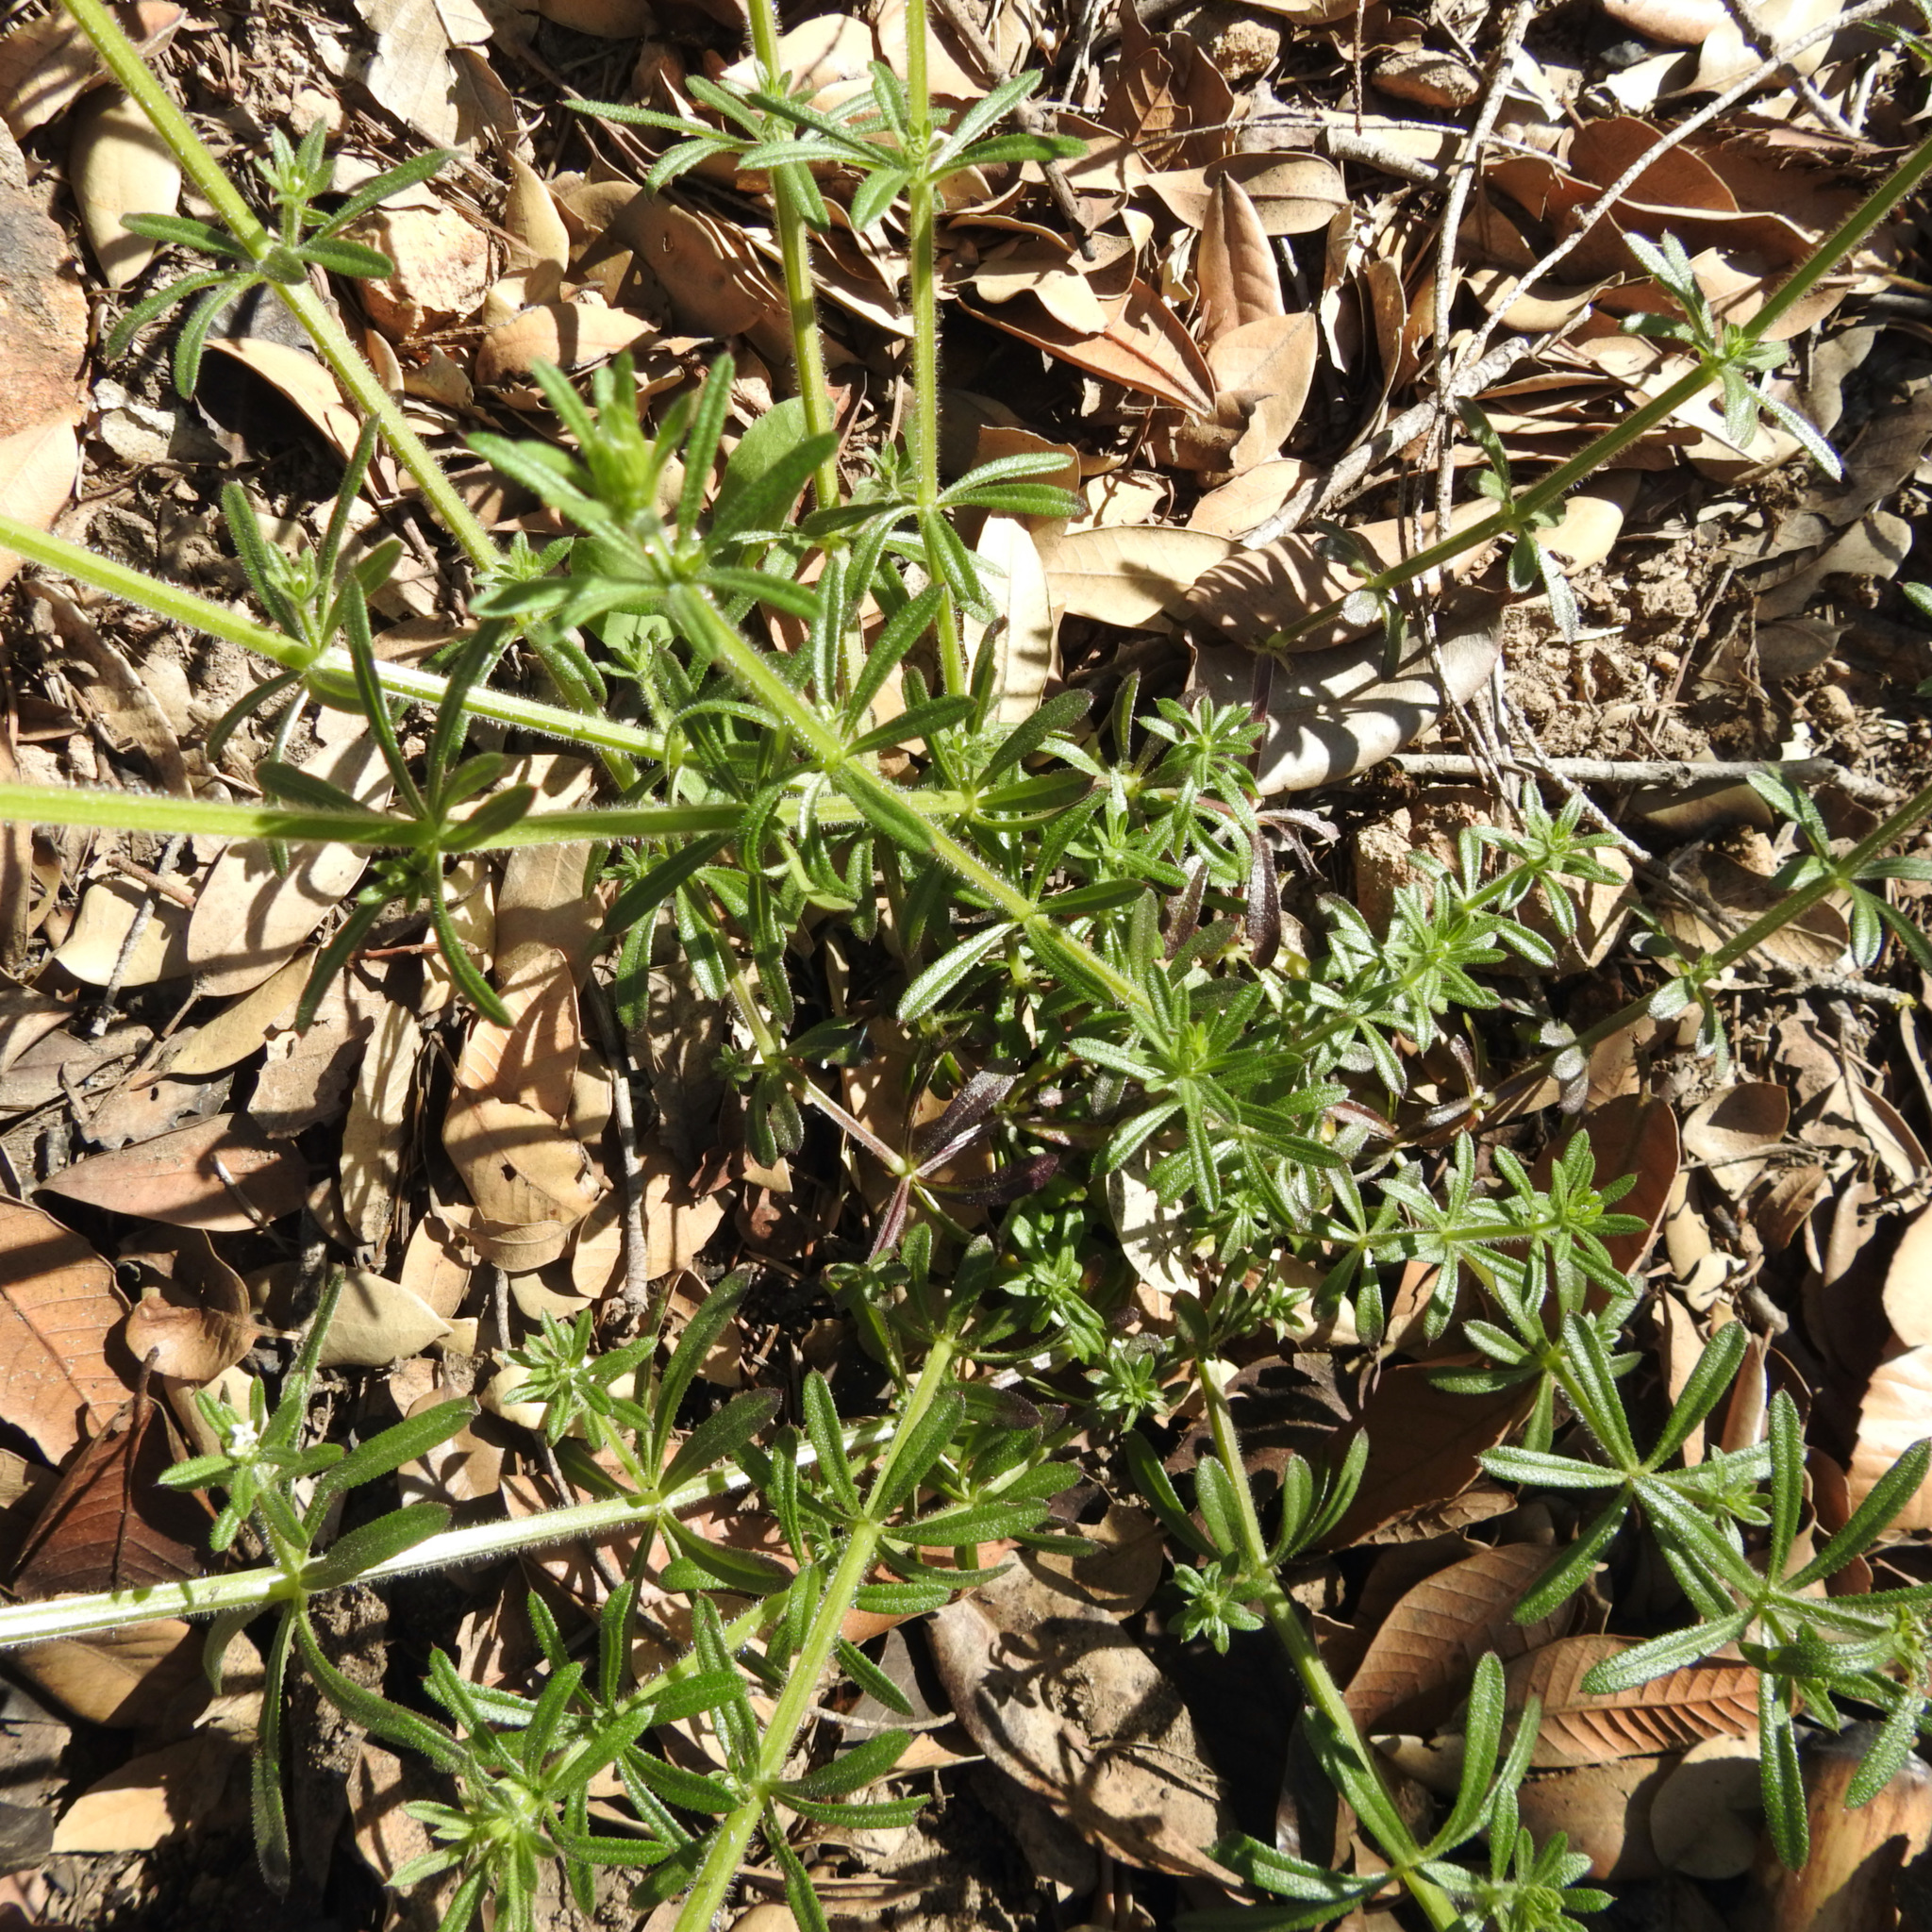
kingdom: Plantae
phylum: Tracheophyta
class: Magnoliopsida
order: Gentianales
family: Rubiaceae
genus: Galium
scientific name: Galium aparine
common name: Cleavers
